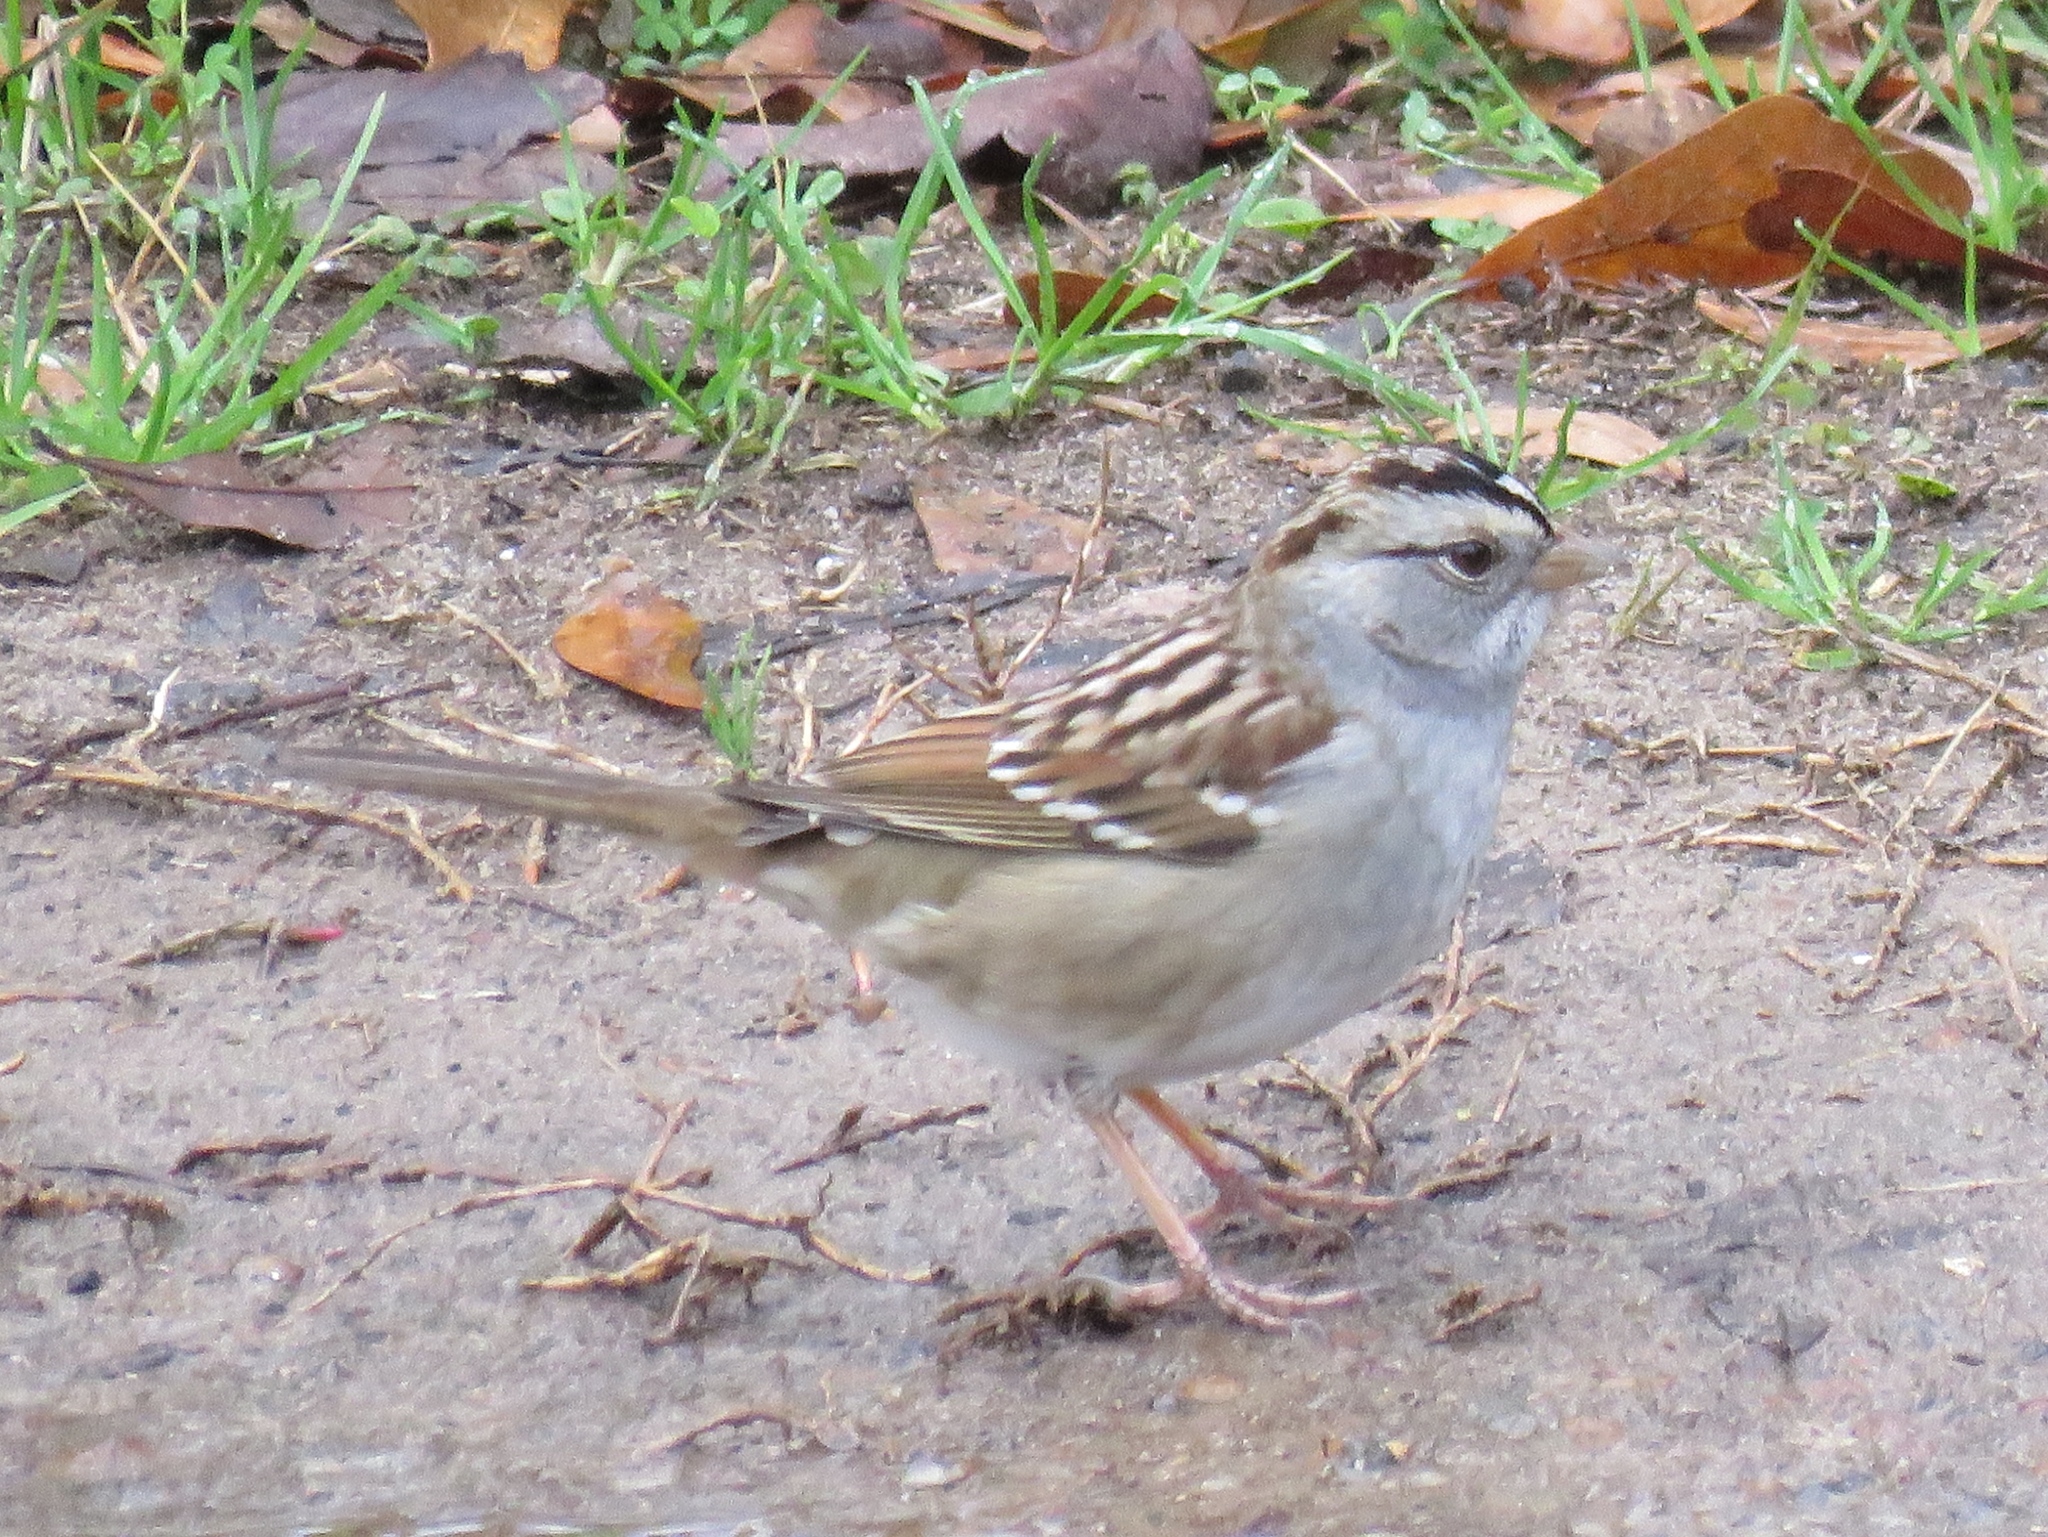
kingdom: Animalia
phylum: Chordata
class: Aves
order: Passeriformes
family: Passerellidae
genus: Zonotrichia
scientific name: Zonotrichia albicollis
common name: White-throated sparrow
